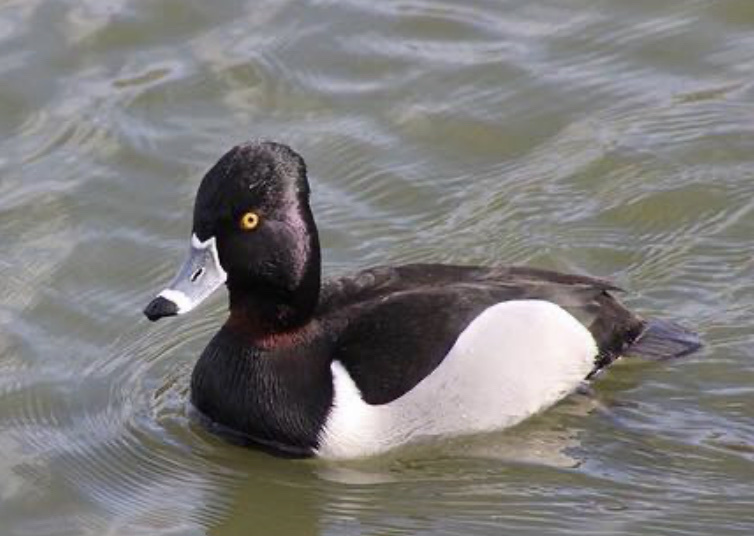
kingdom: Animalia
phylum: Chordata
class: Aves
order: Anseriformes
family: Anatidae
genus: Aythya
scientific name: Aythya collaris
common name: Ring-necked duck
